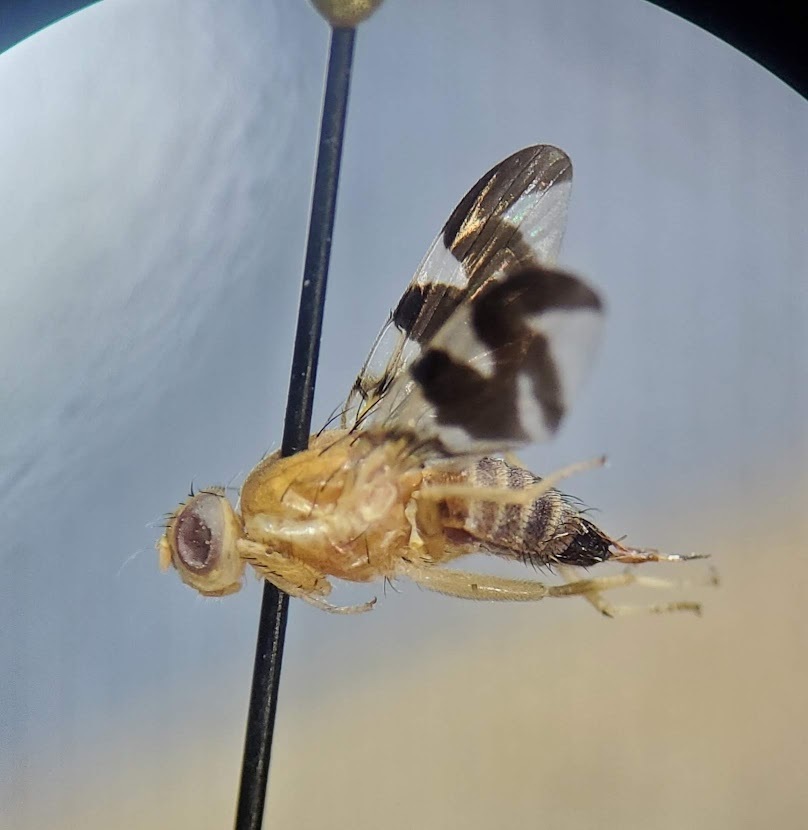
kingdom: Animalia
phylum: Arthropoda
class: Insecta
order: Diptera
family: Tephritidae
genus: Rhagoletis
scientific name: Rhagoletis suavis
